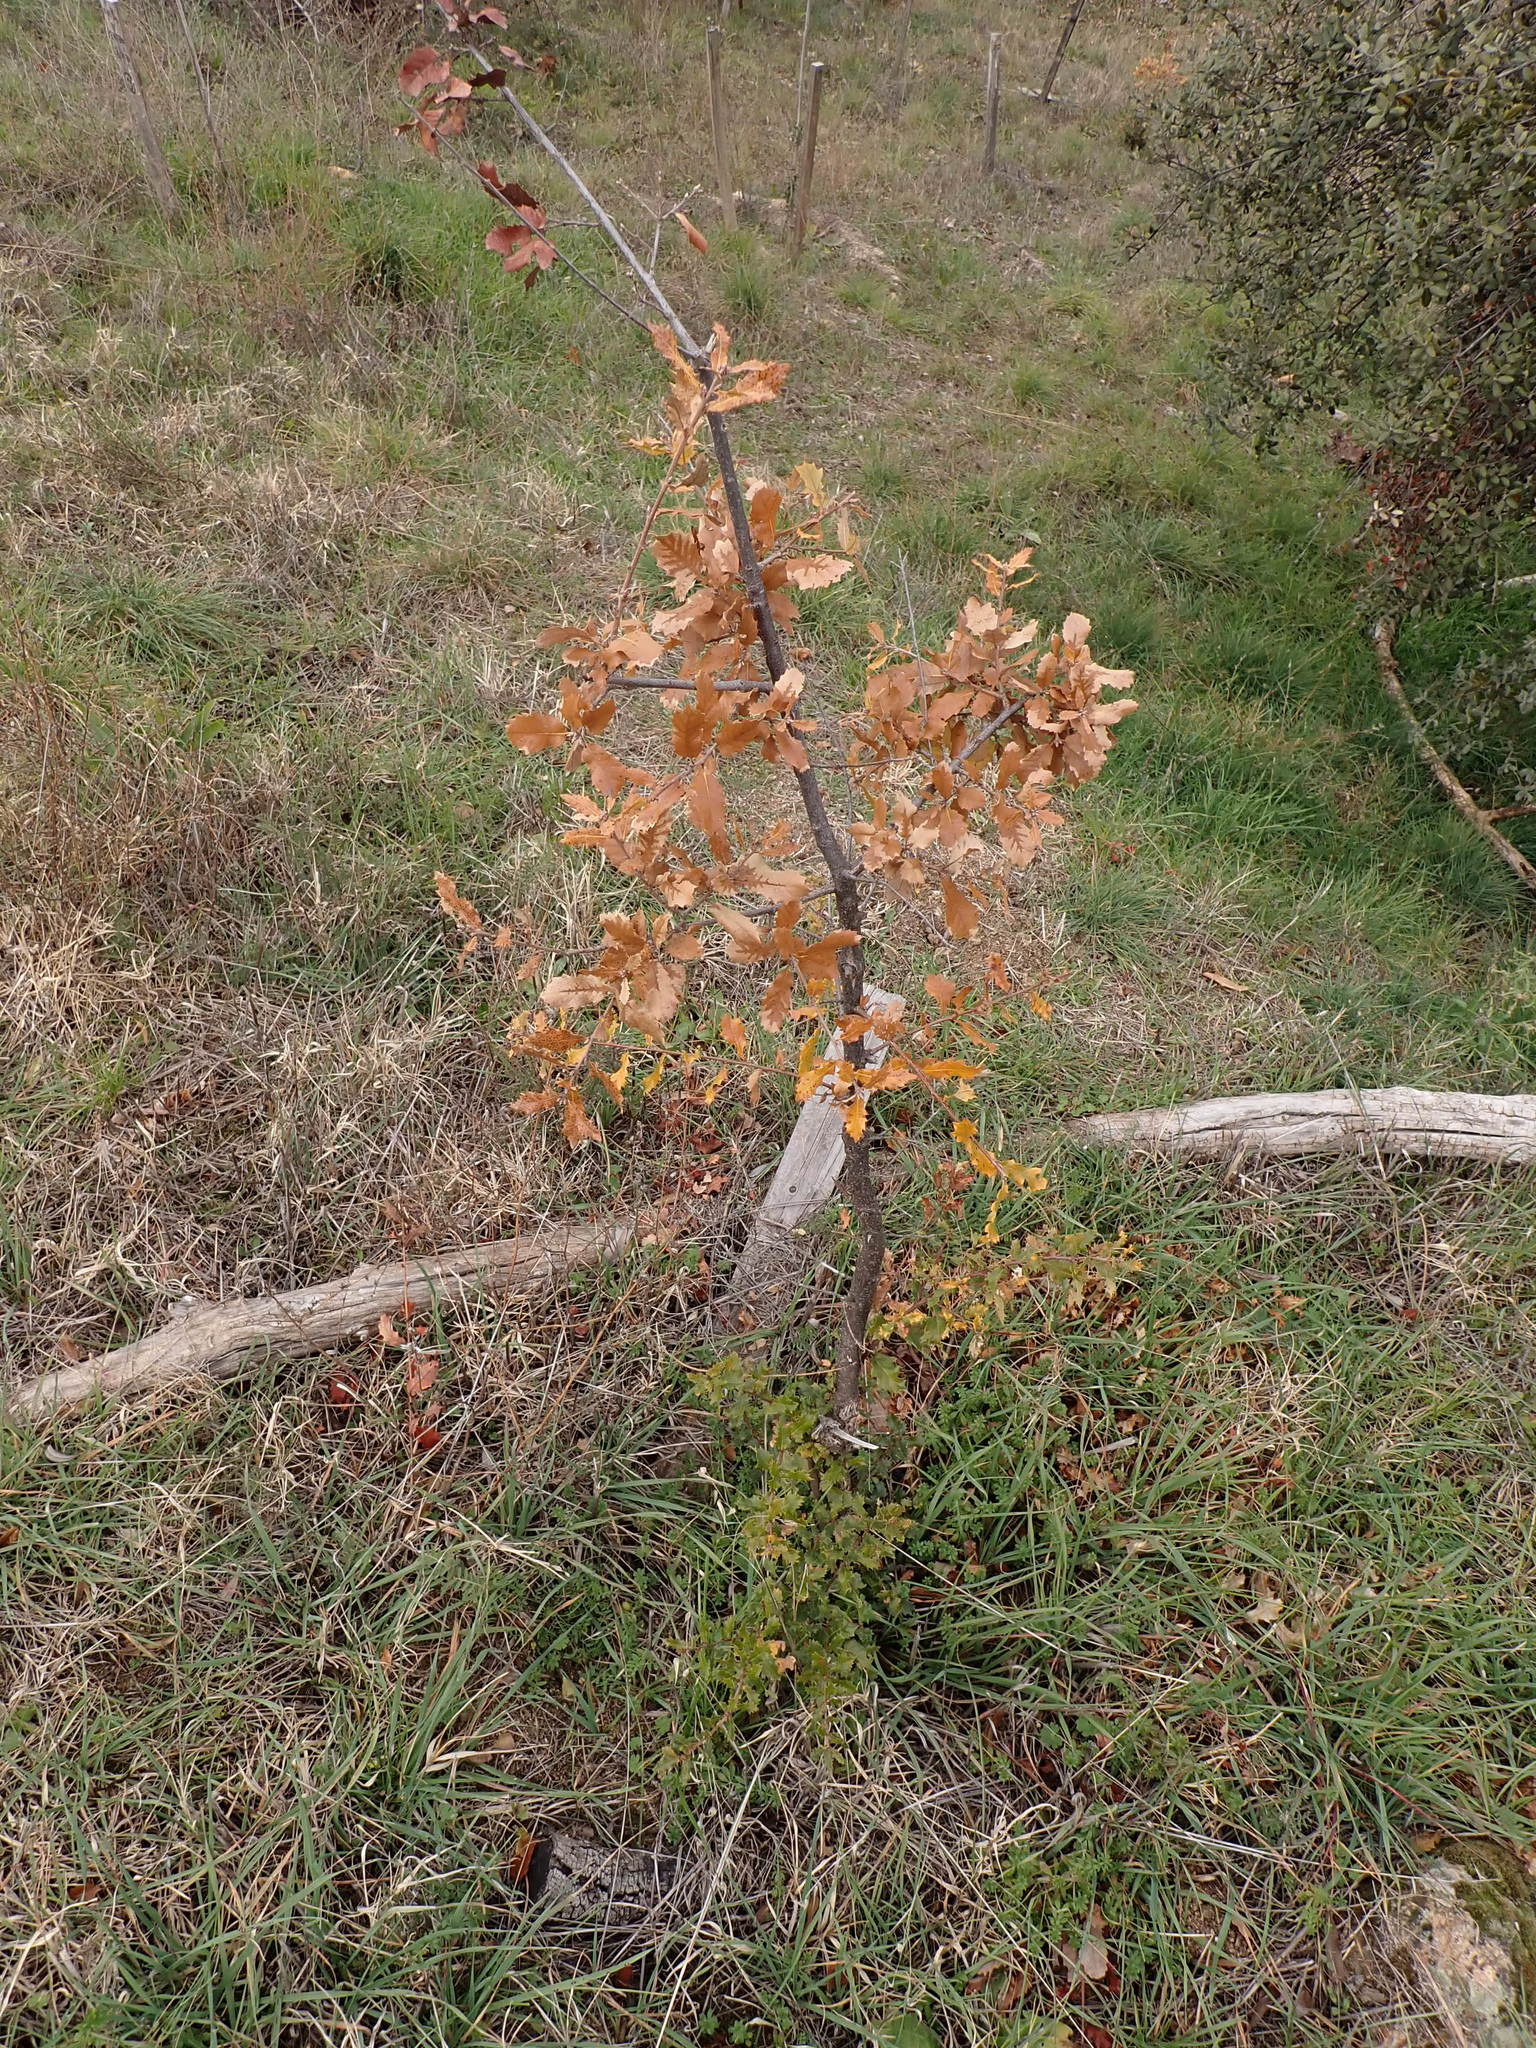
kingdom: Plantae
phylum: Tracheophyta
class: Magnoliopsida
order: Fagales
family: Fagaceae
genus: Quercus
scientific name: Quercus faginea
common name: Gall oak tree
